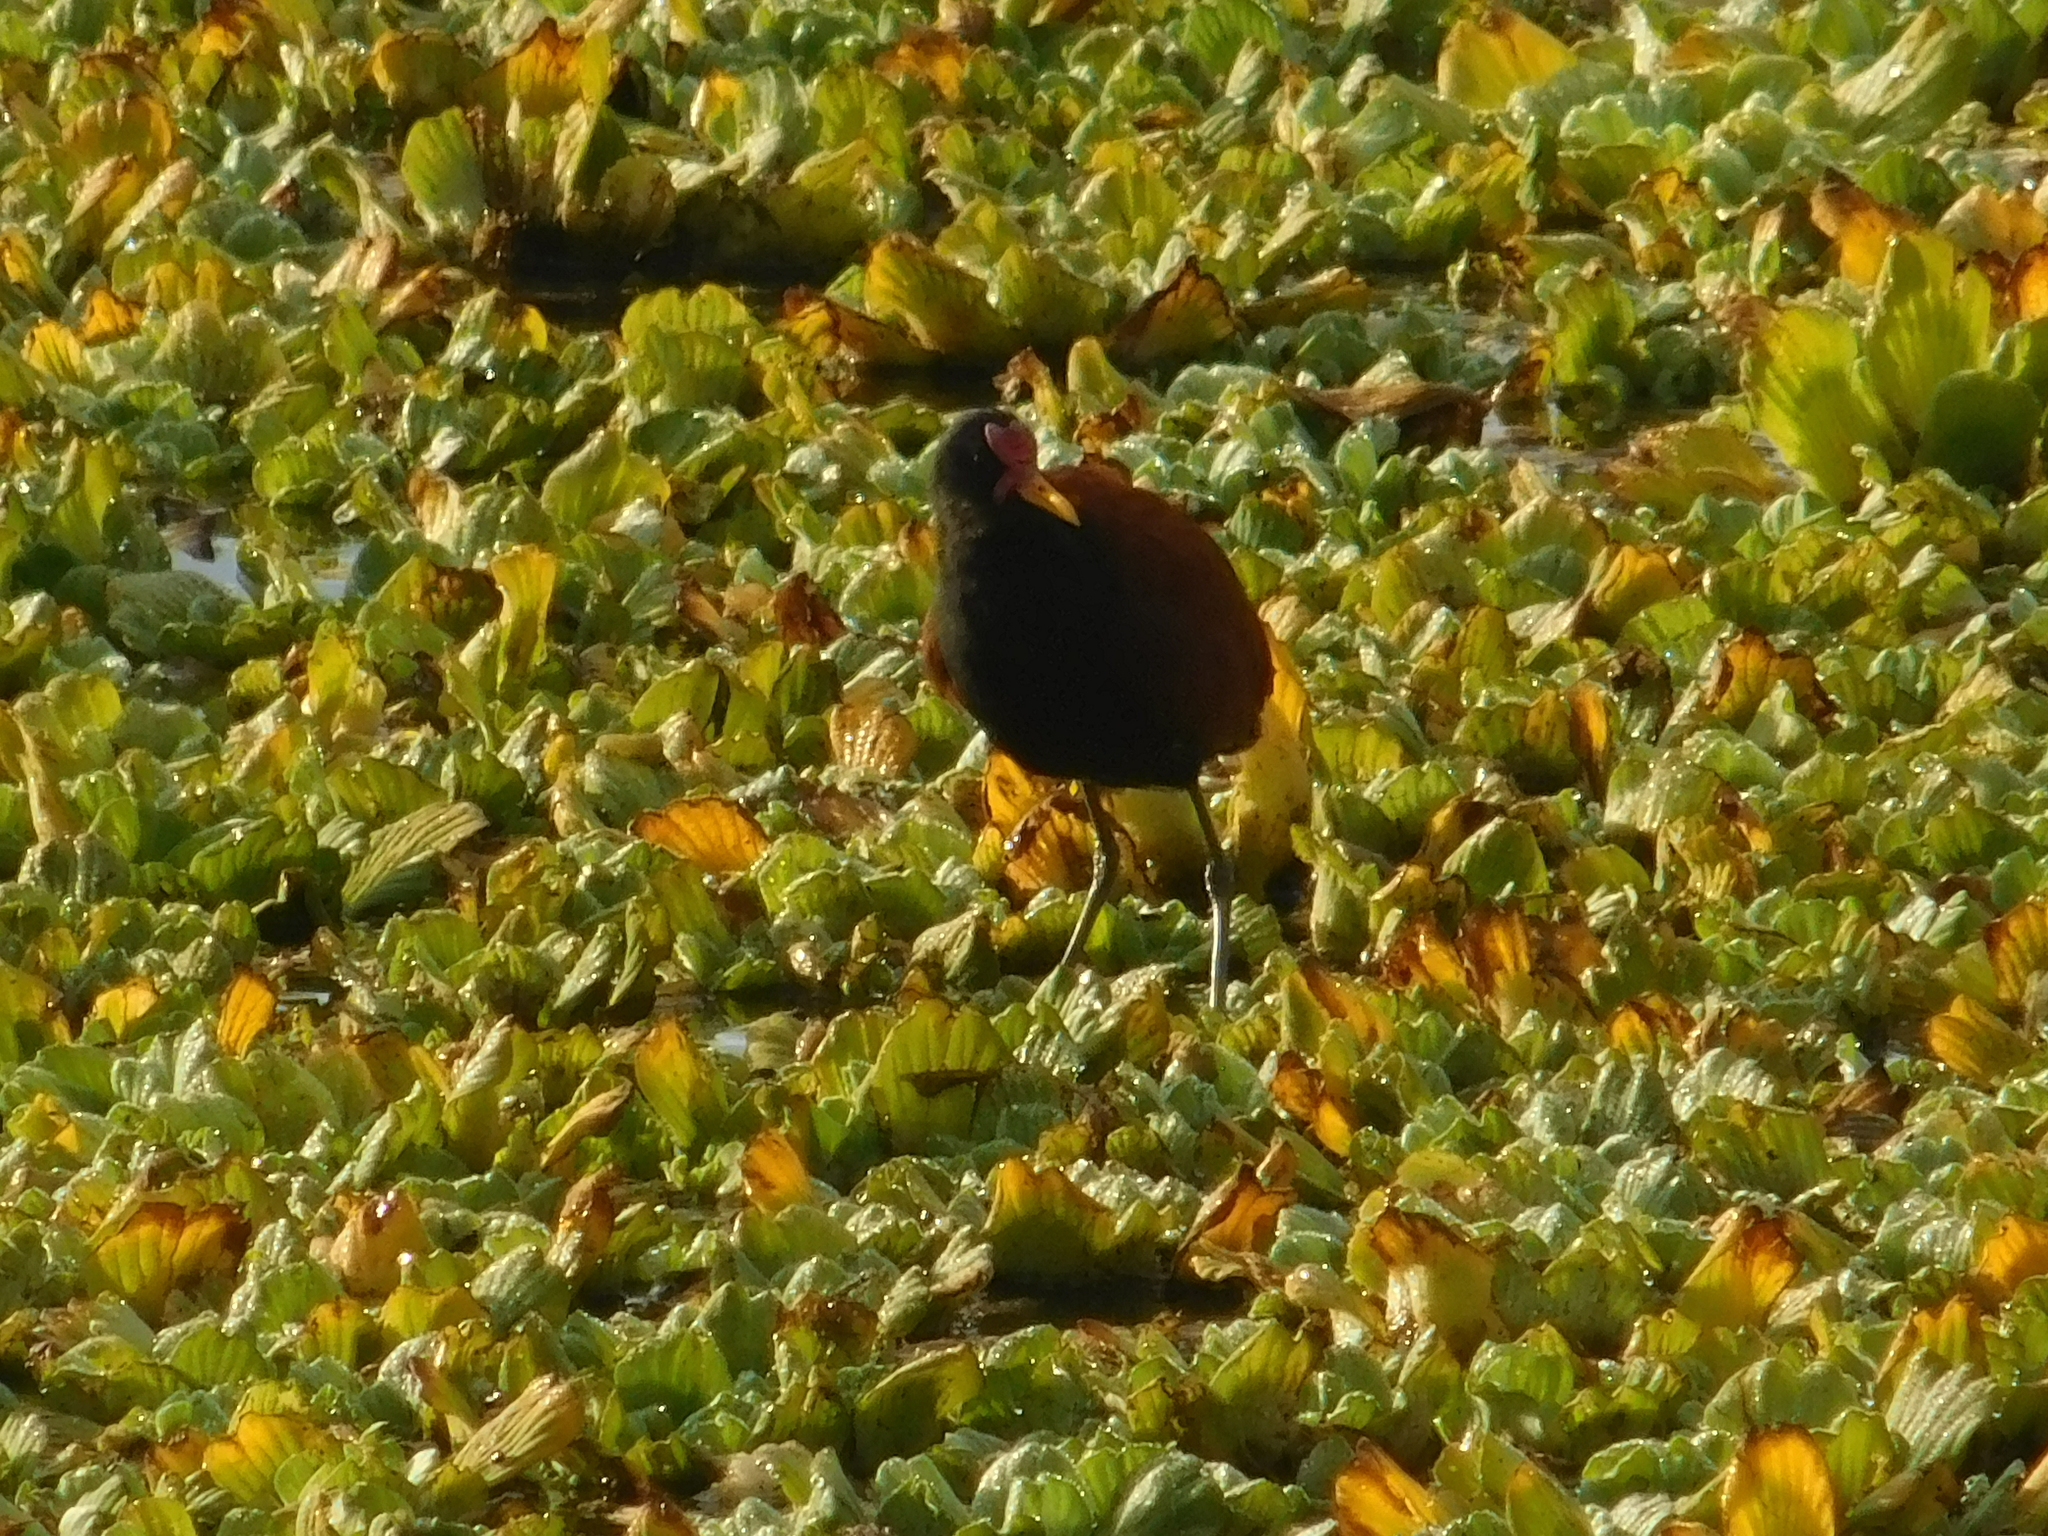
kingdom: Animalia
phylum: Chordata
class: Aves
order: Charadriiformes
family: Jacanidae
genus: Jacana
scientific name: Jacana jacana
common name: Wattled jacana
